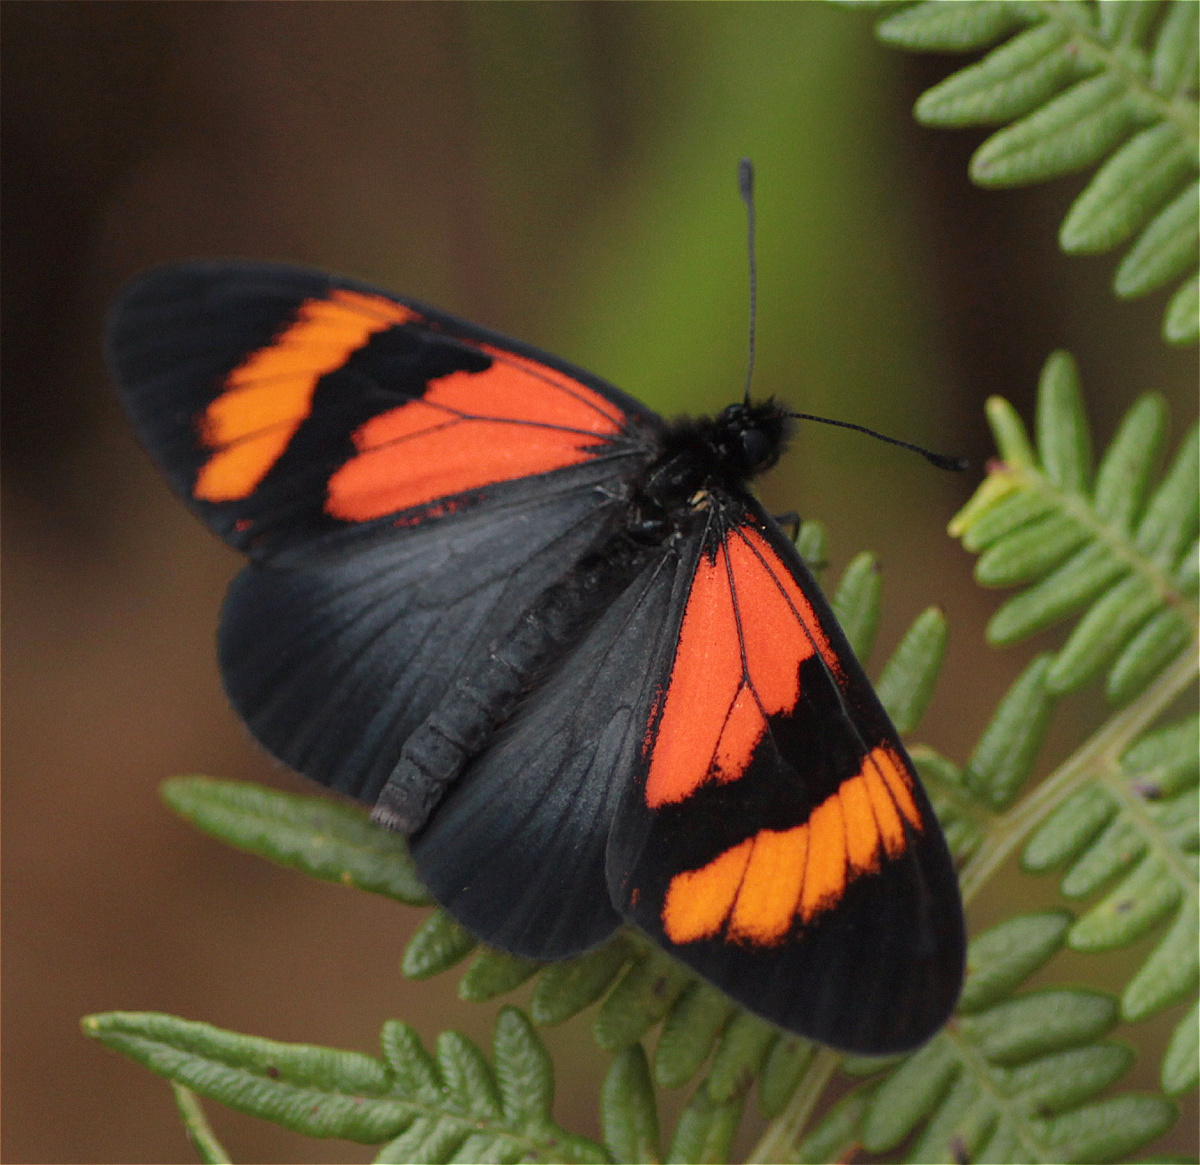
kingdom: Animalia
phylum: Arthropoda
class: Insecta
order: Lepidoptera
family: Nymphalidae
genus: Acraea
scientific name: Acraea Altinote dicaeus
